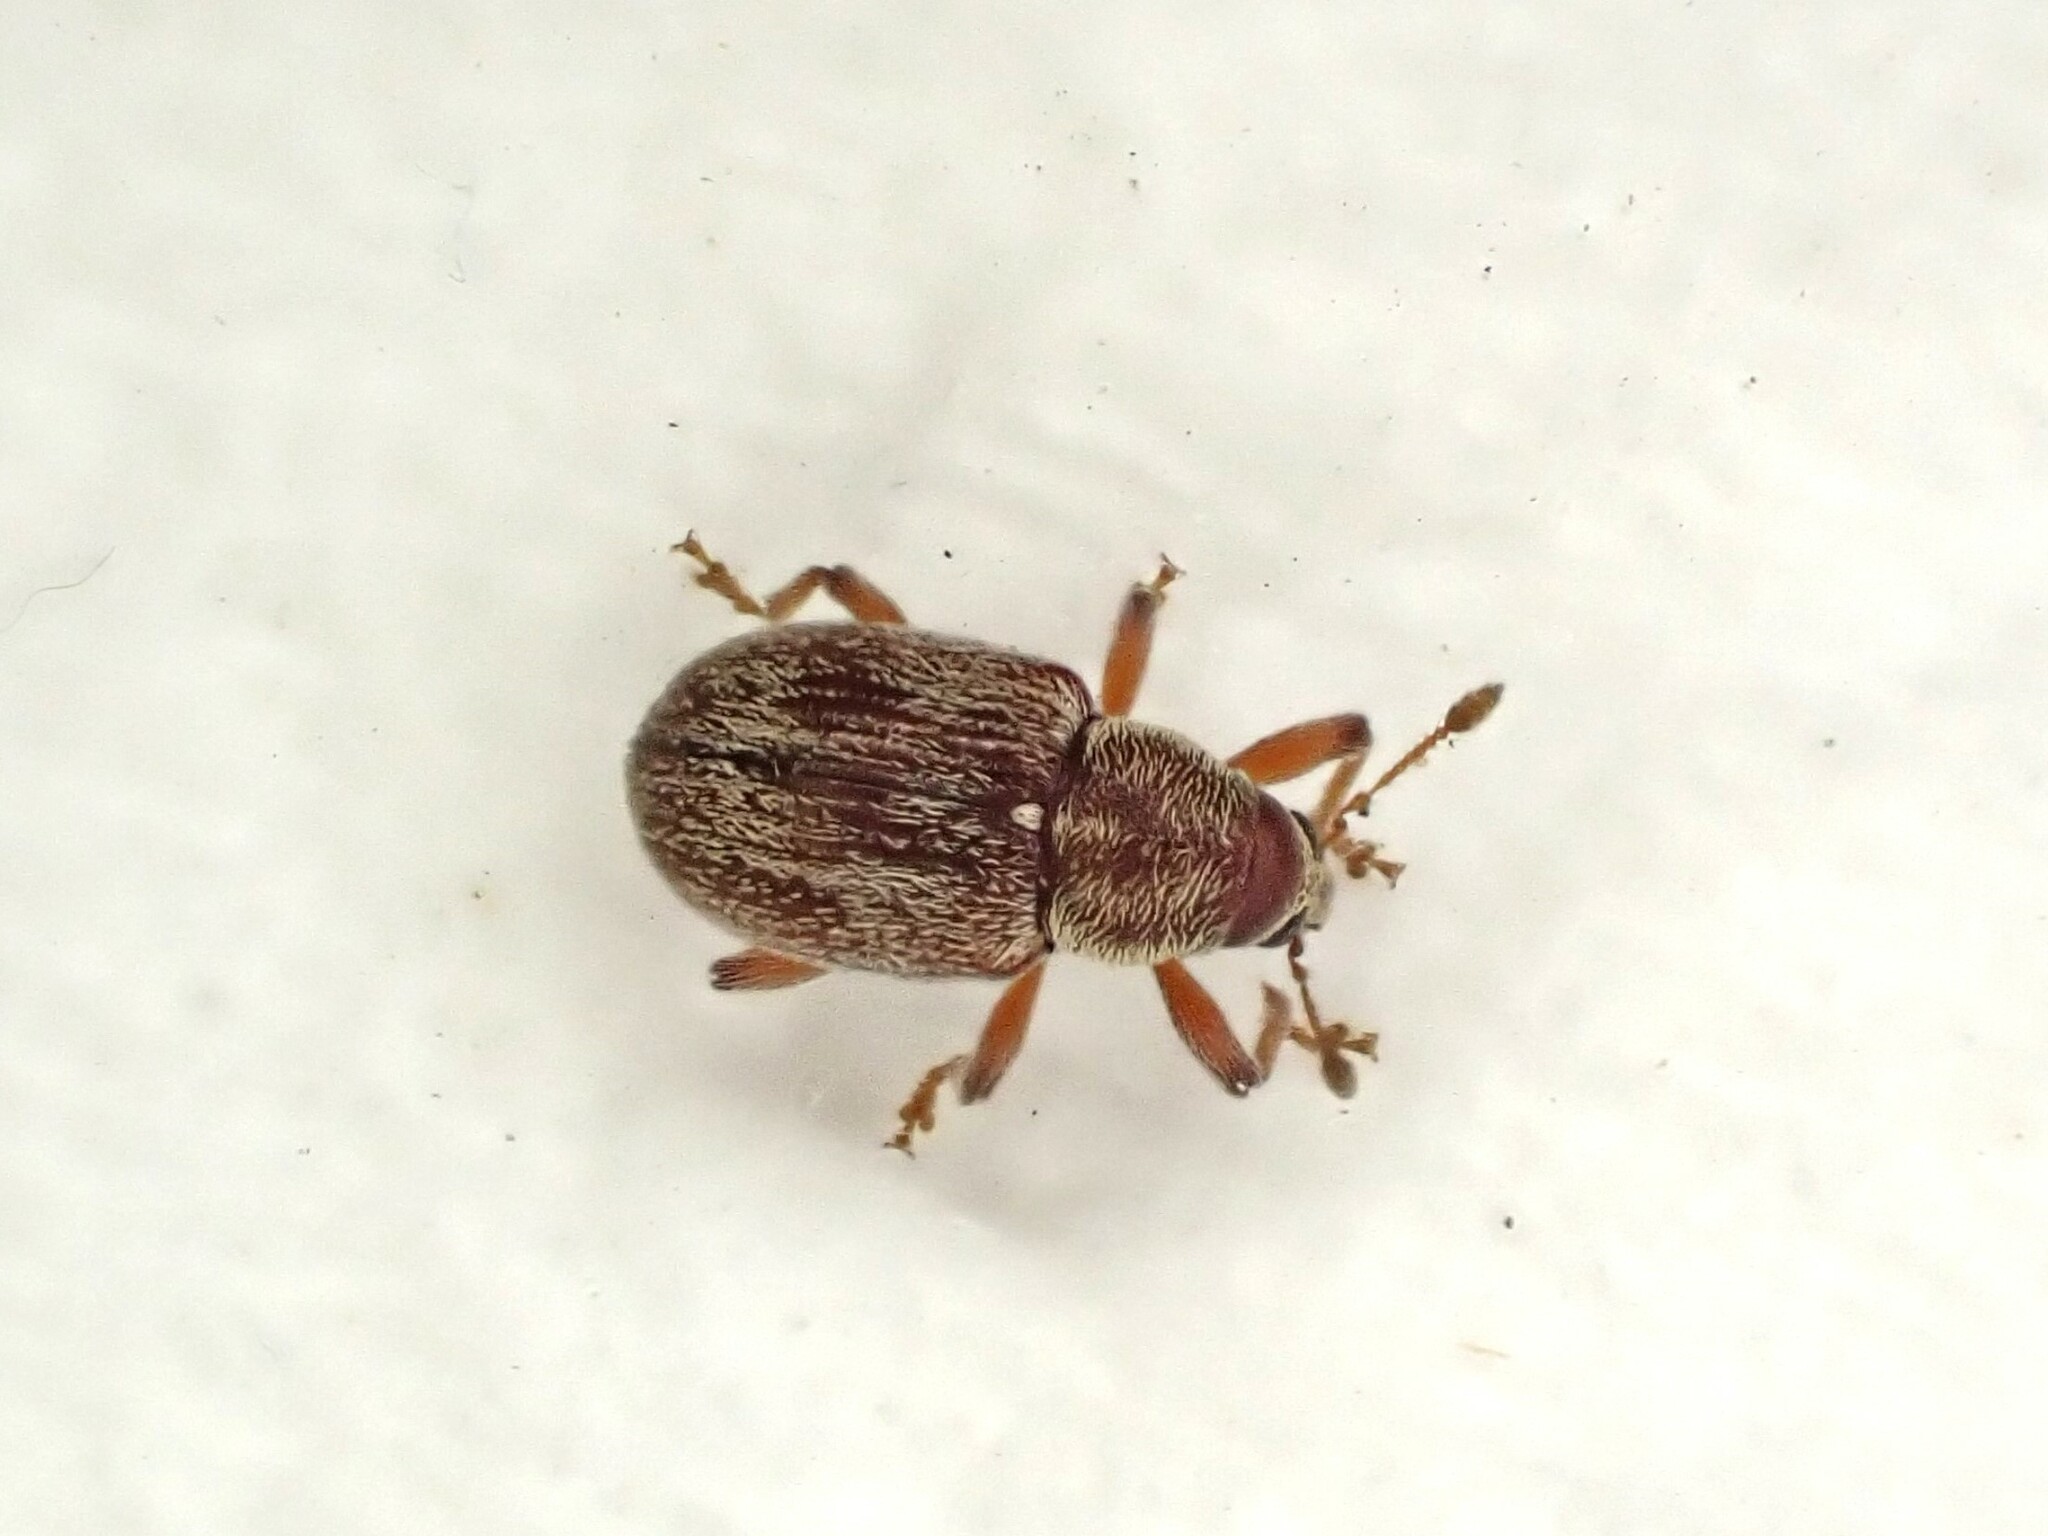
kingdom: Animalia
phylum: Arthropoda
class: Insecta
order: Coleoptera
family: Curculionidae
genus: Neomycta
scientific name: Neomycta rubida
